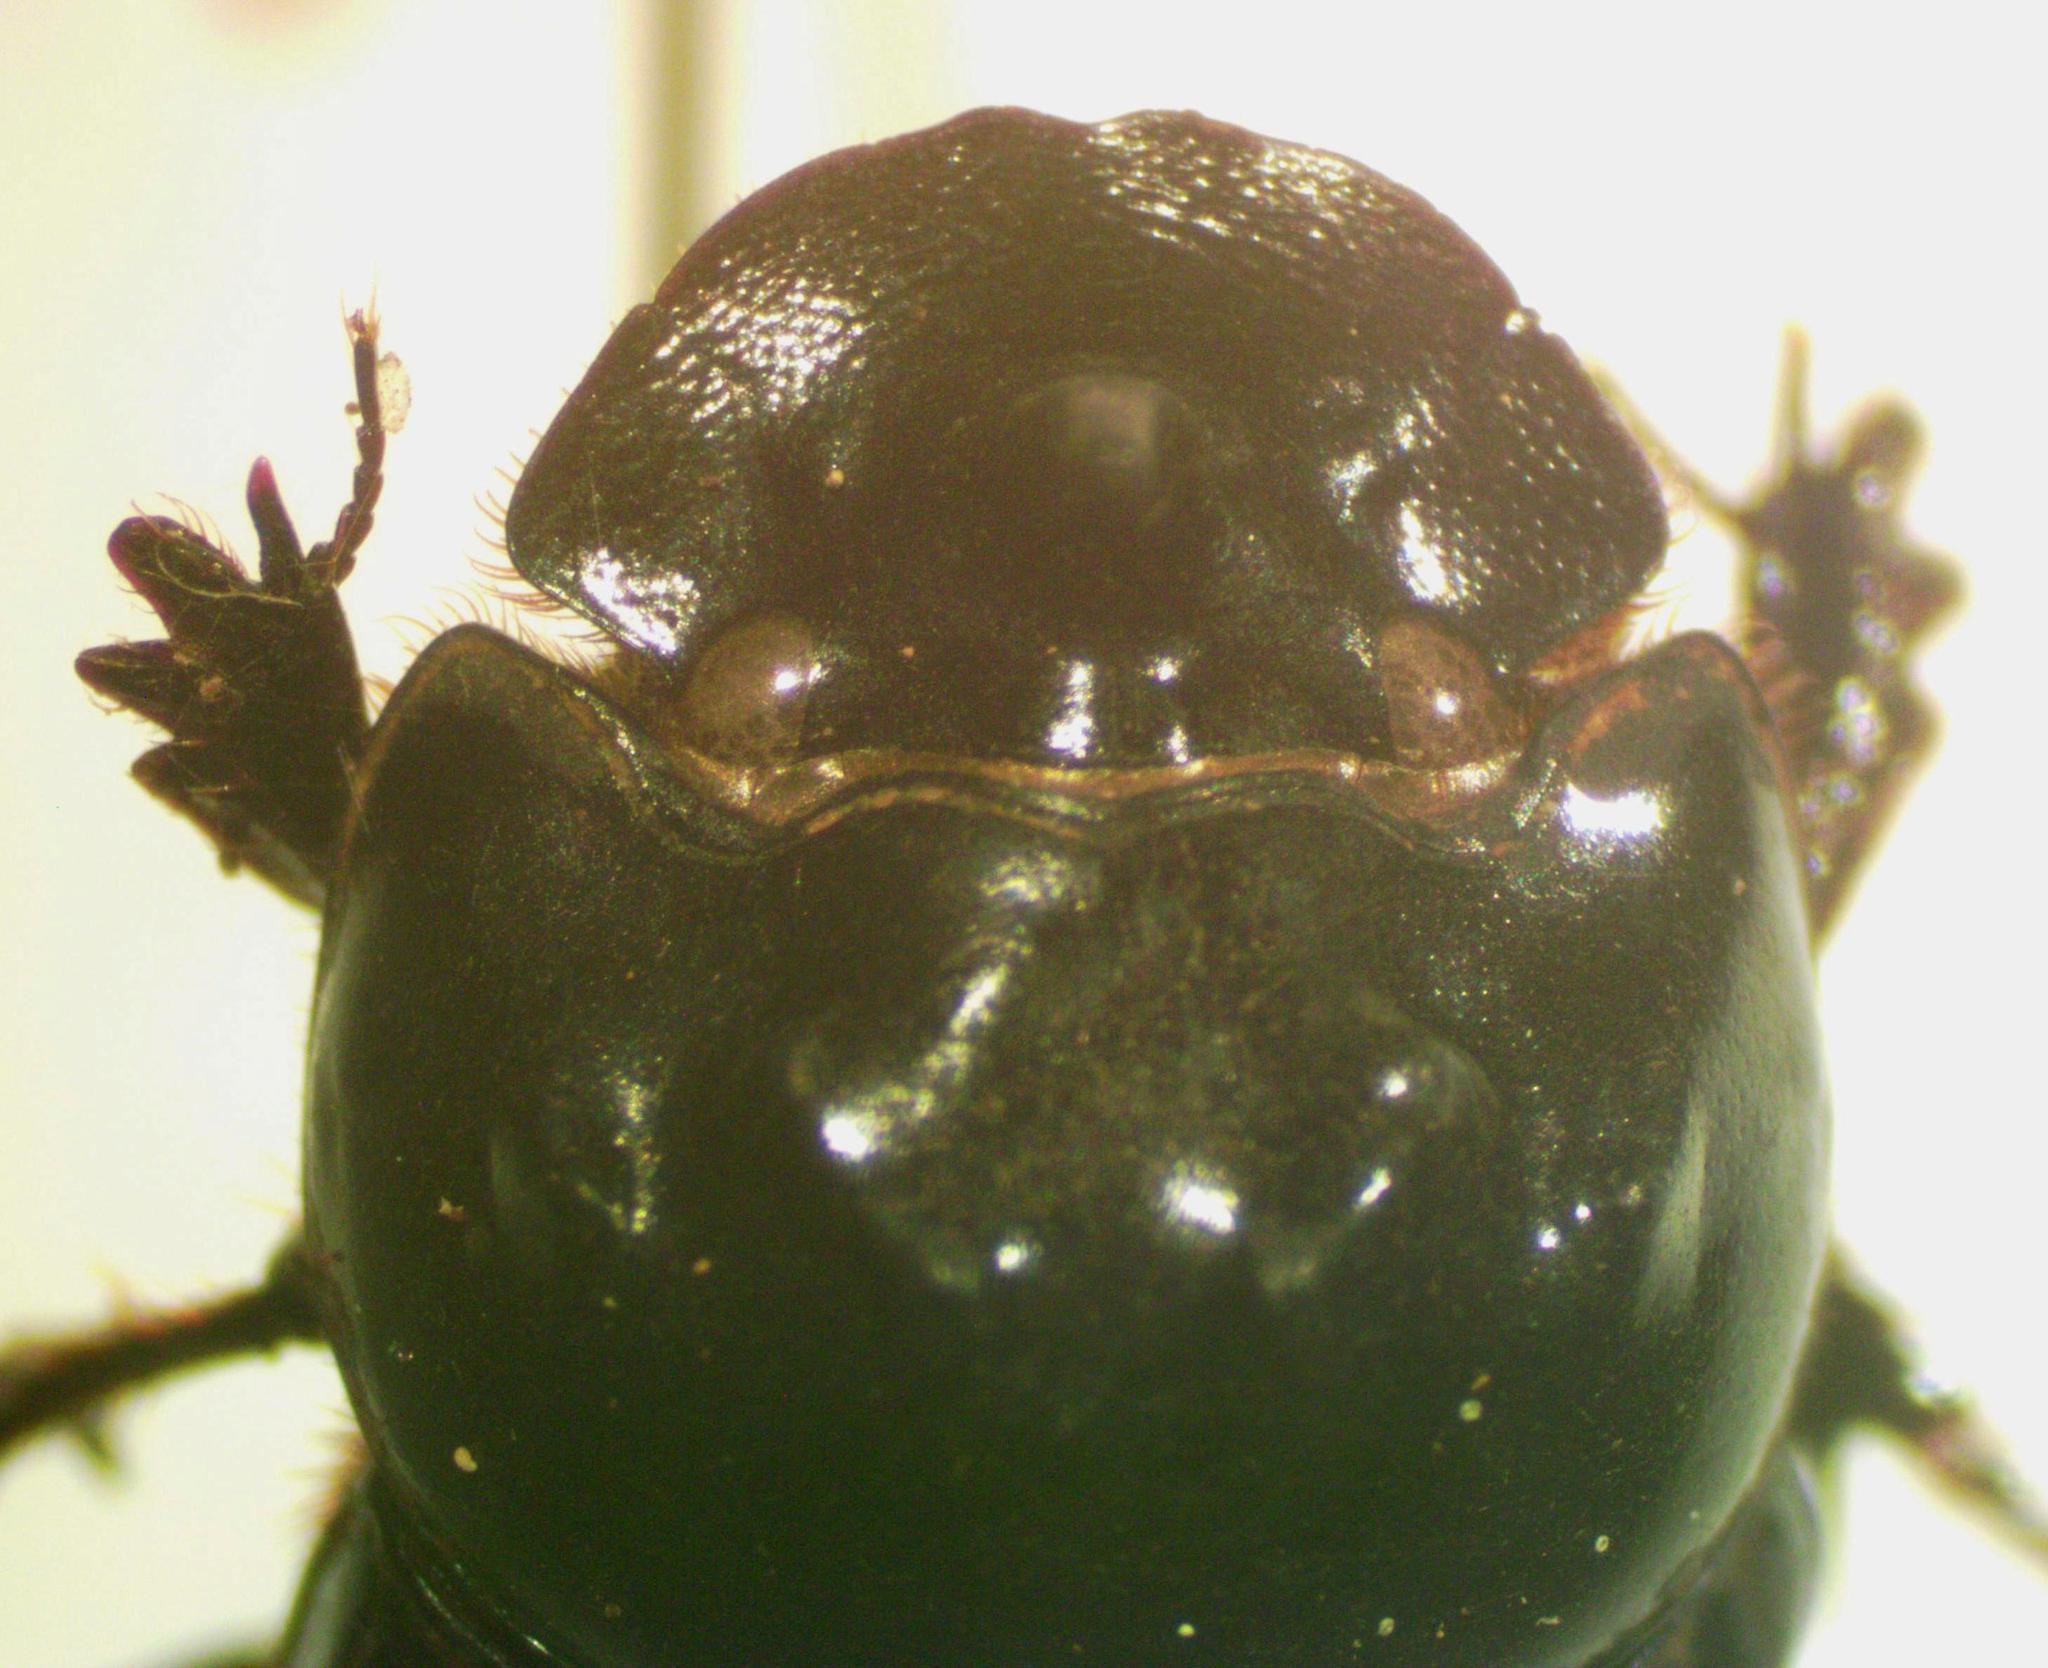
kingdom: Animalia
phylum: Arthropoda
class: Insecta
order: Coleoptera
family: Scarabaeidae
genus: Ontherus
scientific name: Ontherus sextuberculatus
